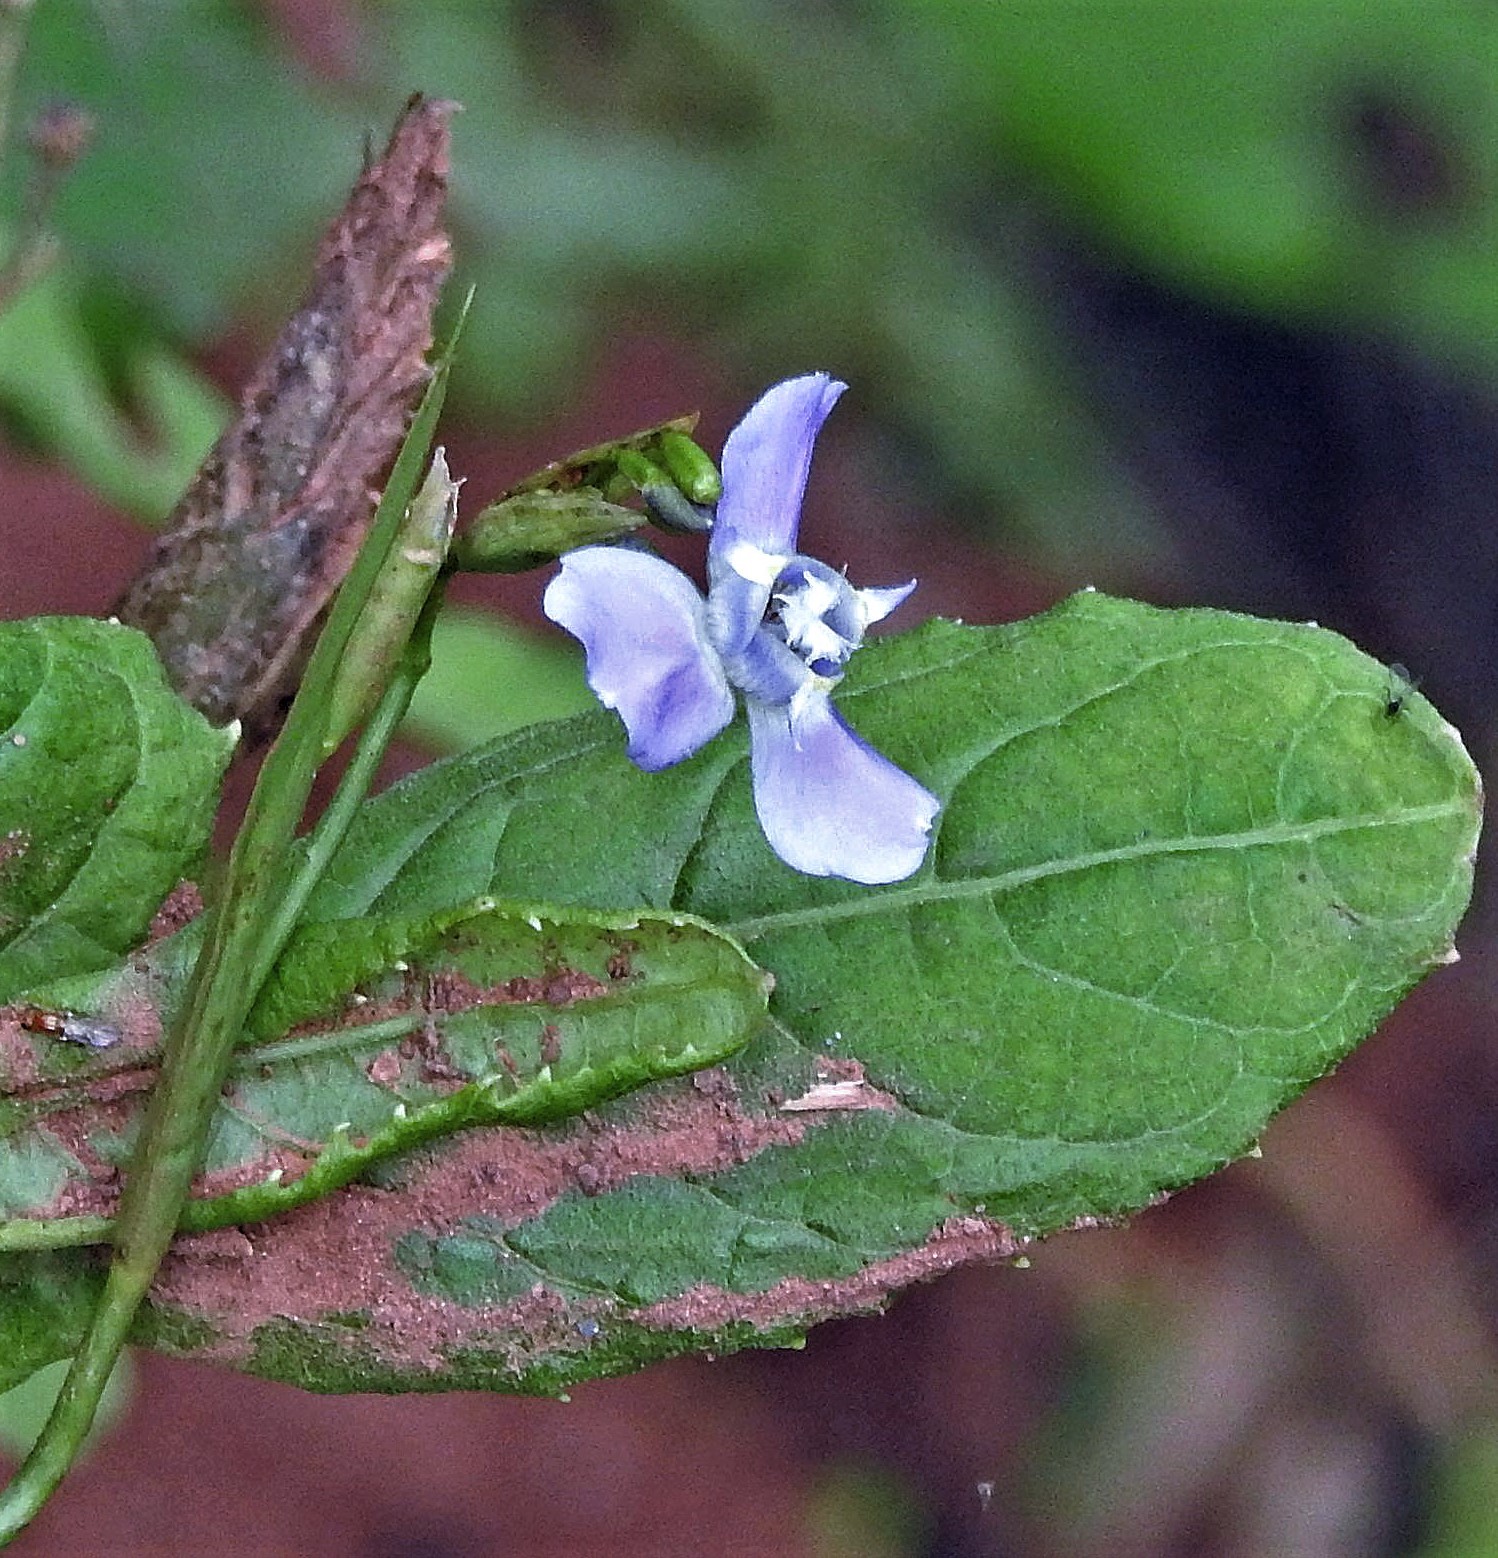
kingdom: Plantae
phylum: Tracheophyta
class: Liliopsida
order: Asparagales
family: Iridaceae
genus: Ennealophus
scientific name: Ennealophus euryandrus
